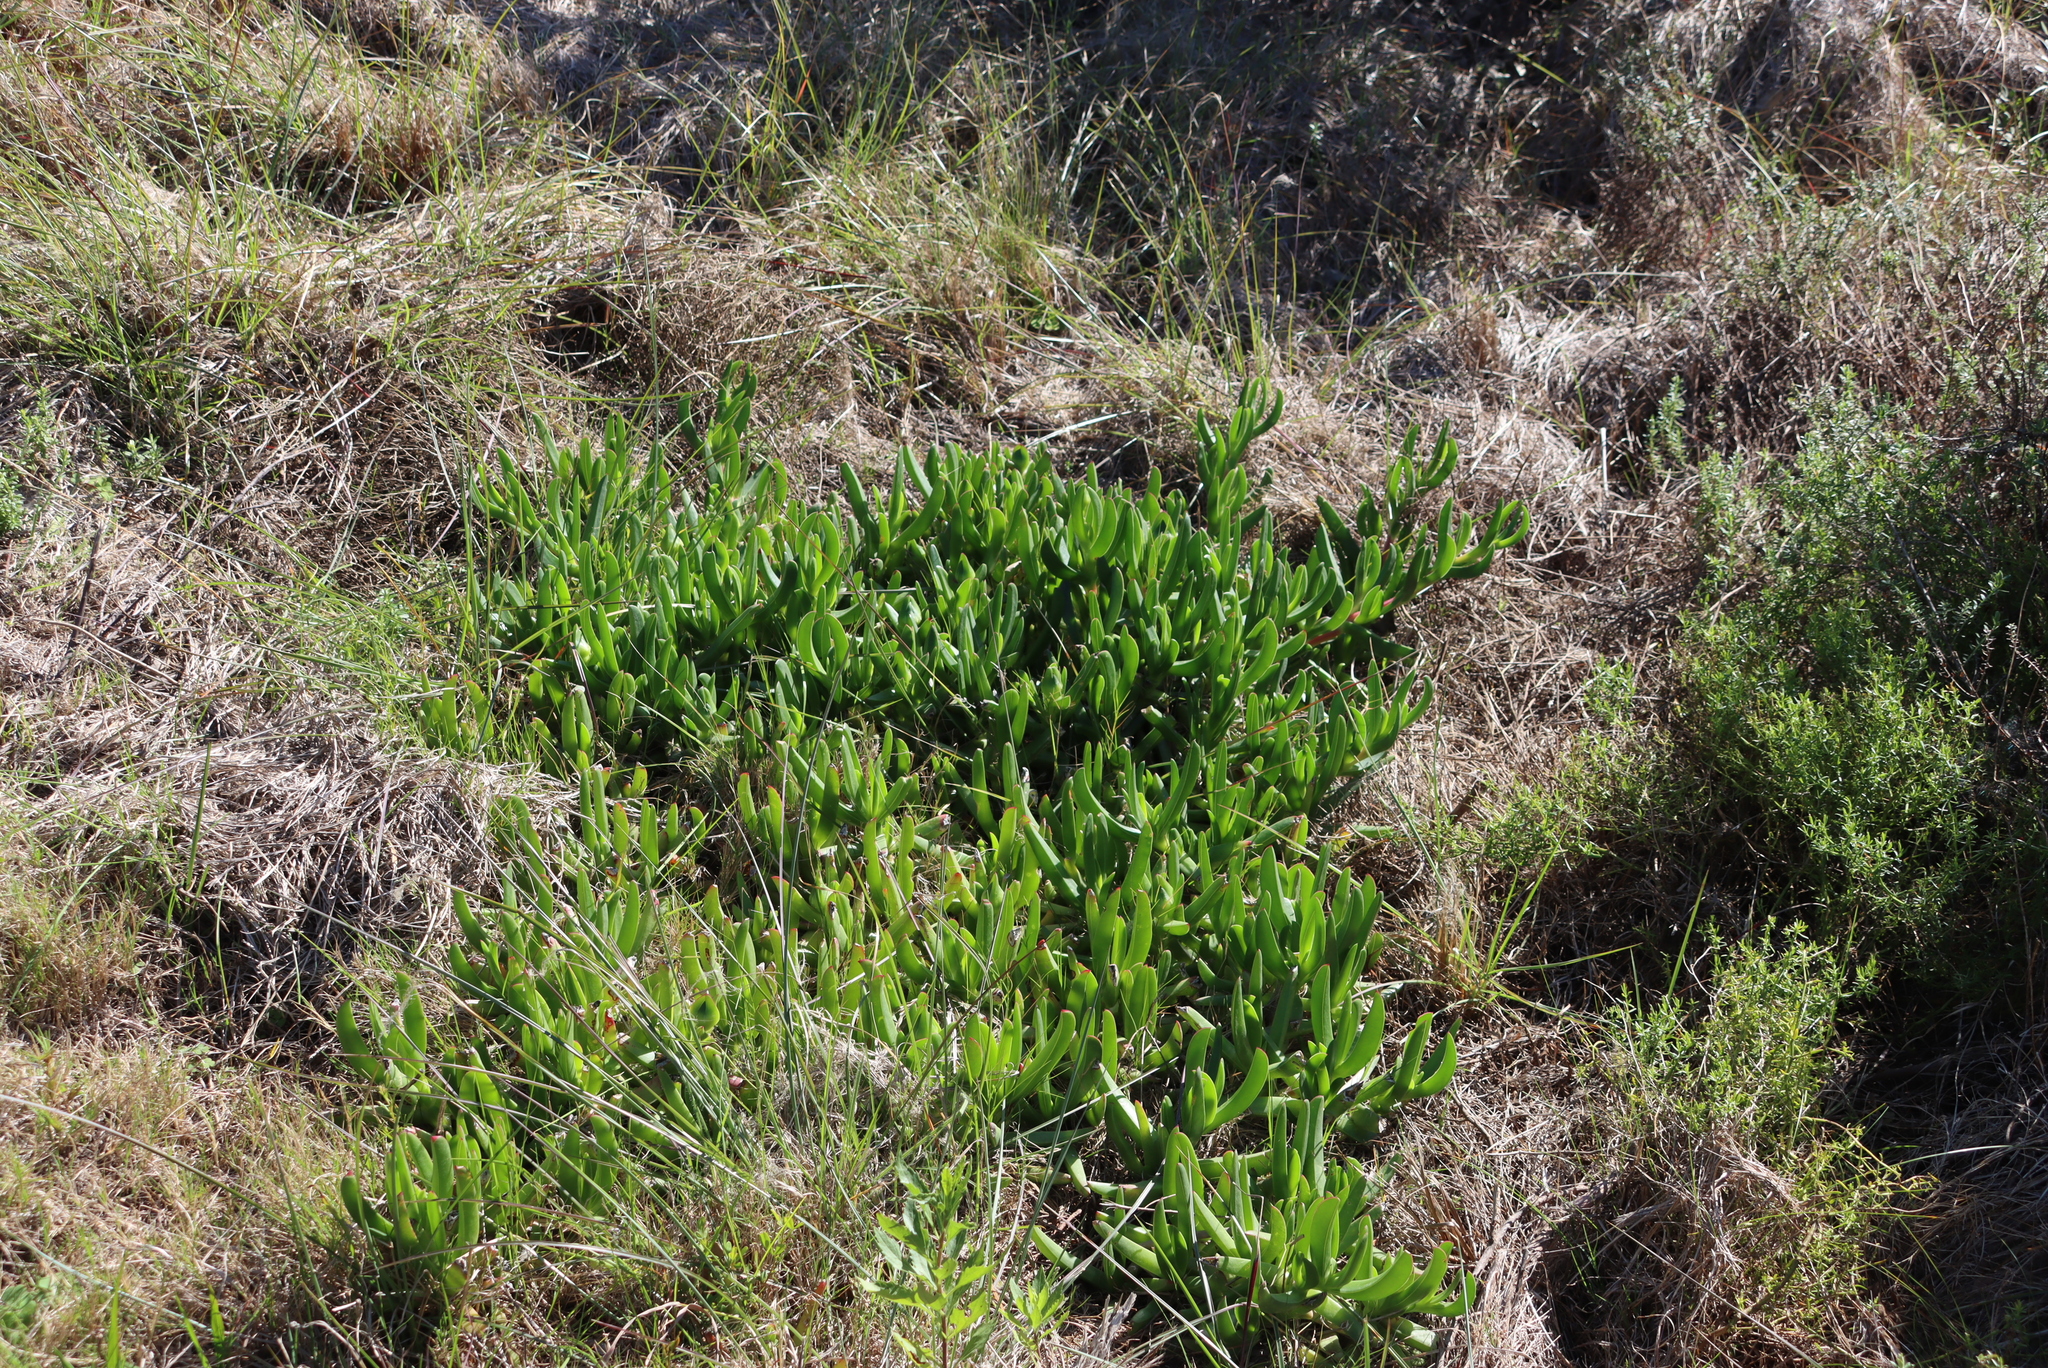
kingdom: Plantae
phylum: Tracheophyta
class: Magnoliopsida
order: Caryophyllales
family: Aizoaceae
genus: Carpobrotus
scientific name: Carpobrotus deliciosus
